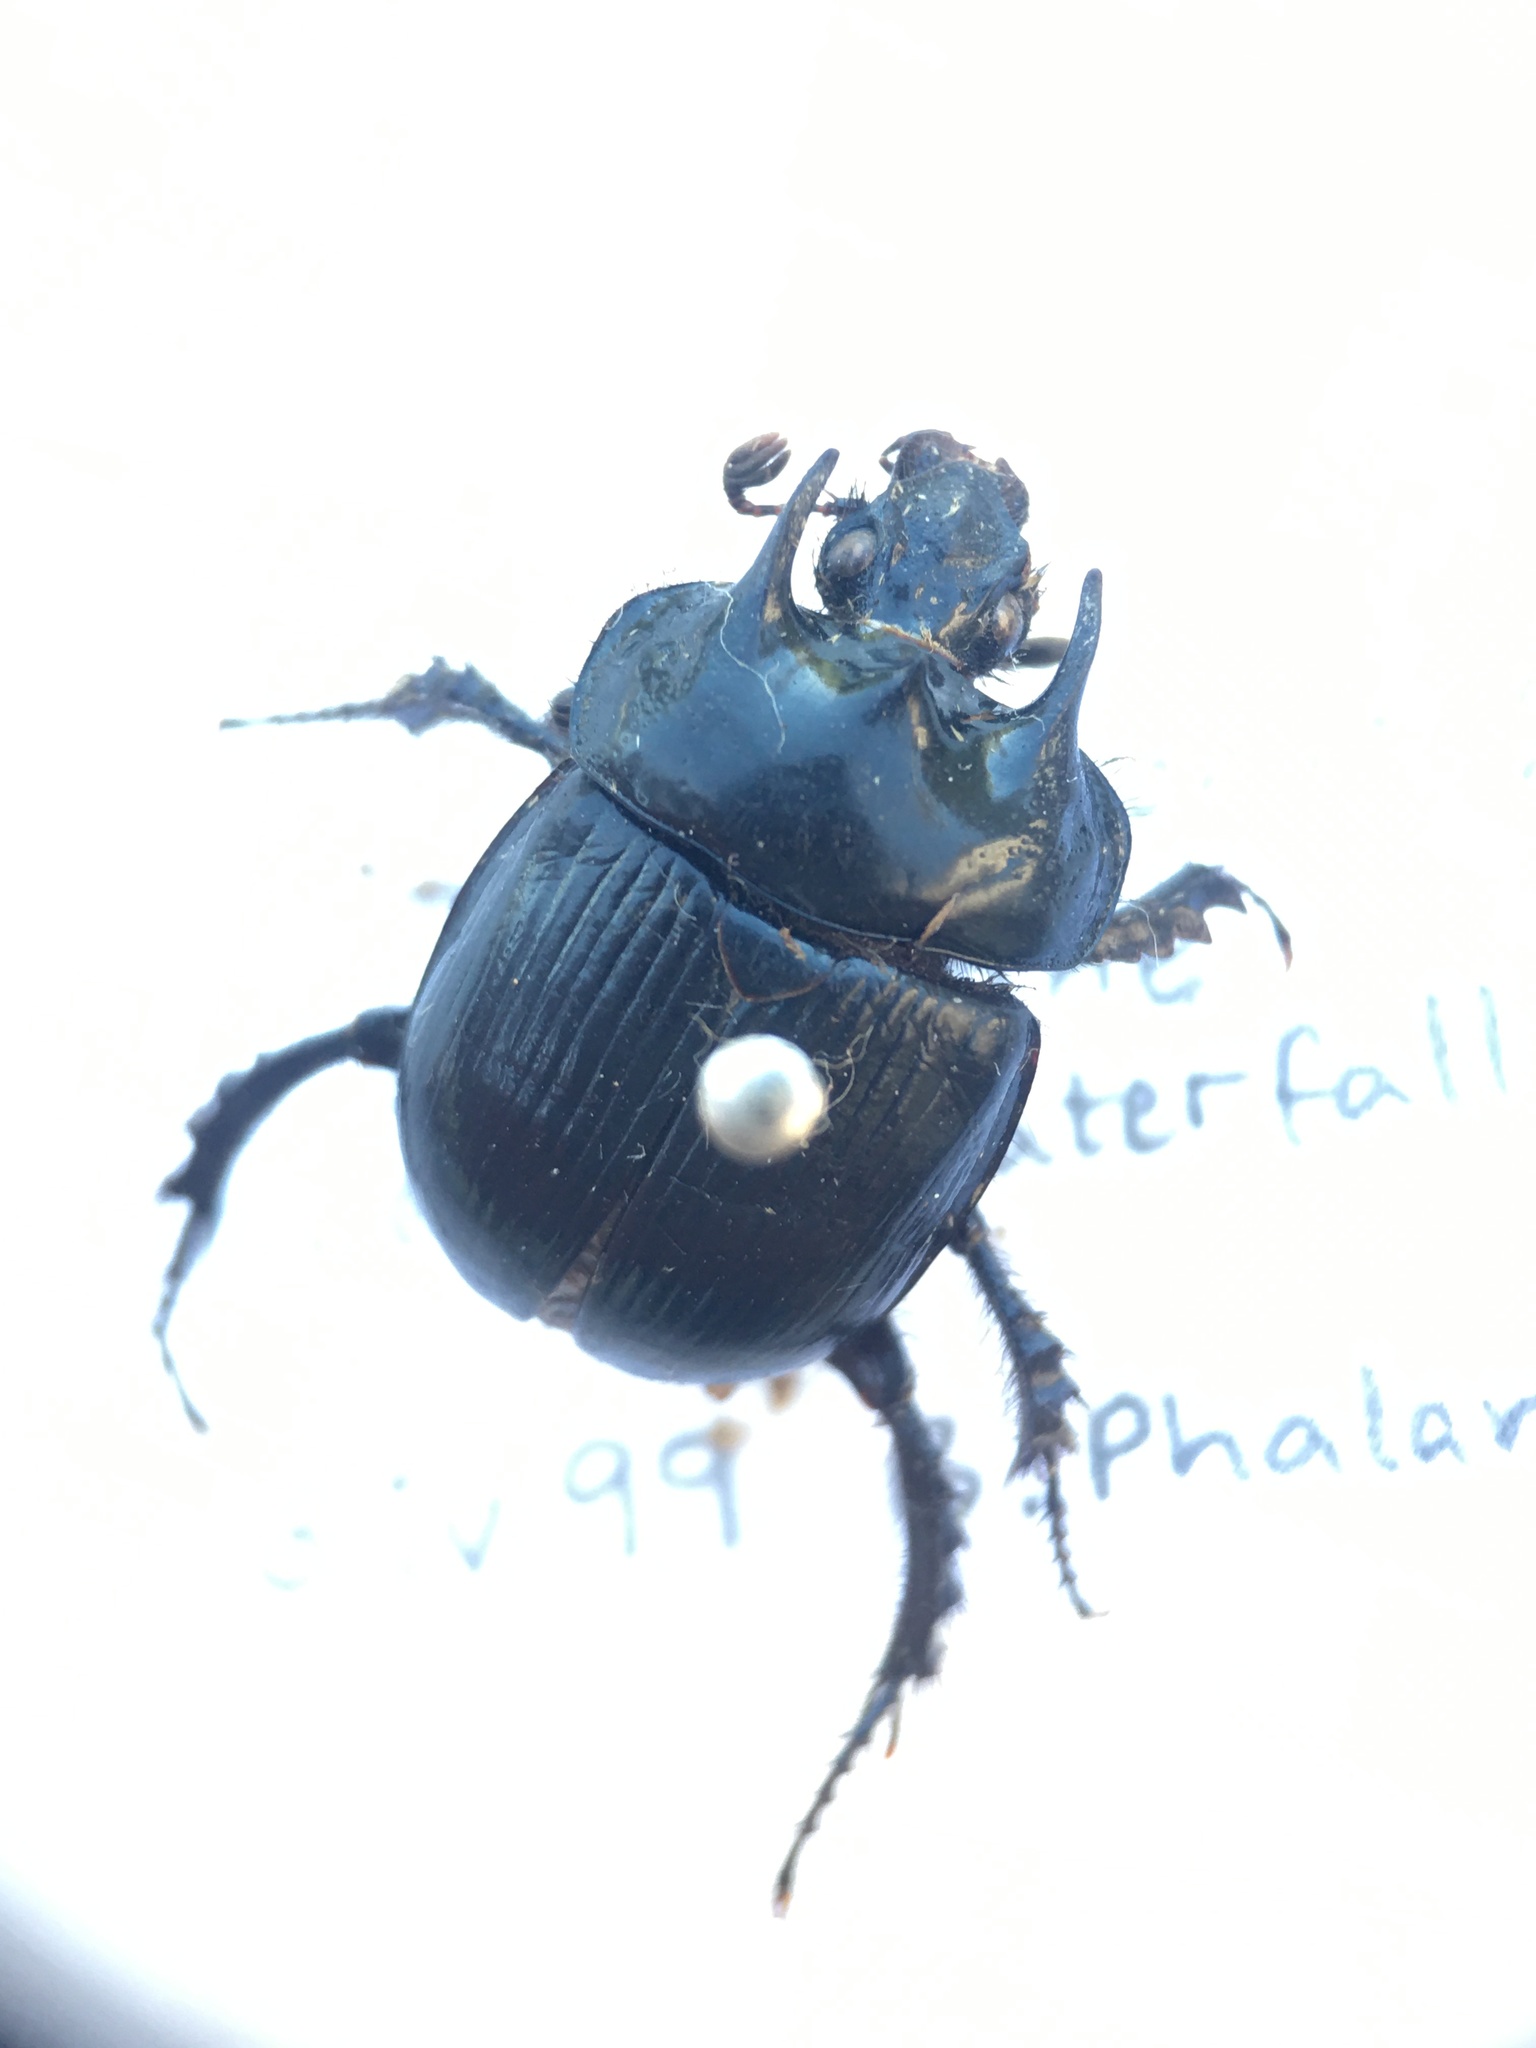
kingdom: Animalia
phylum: Arthropoda
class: Insecta
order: Coleoptera
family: Geotrupidae
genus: Typhaeus
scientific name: Typhaeus typhoeus
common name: Minotaur beetle
